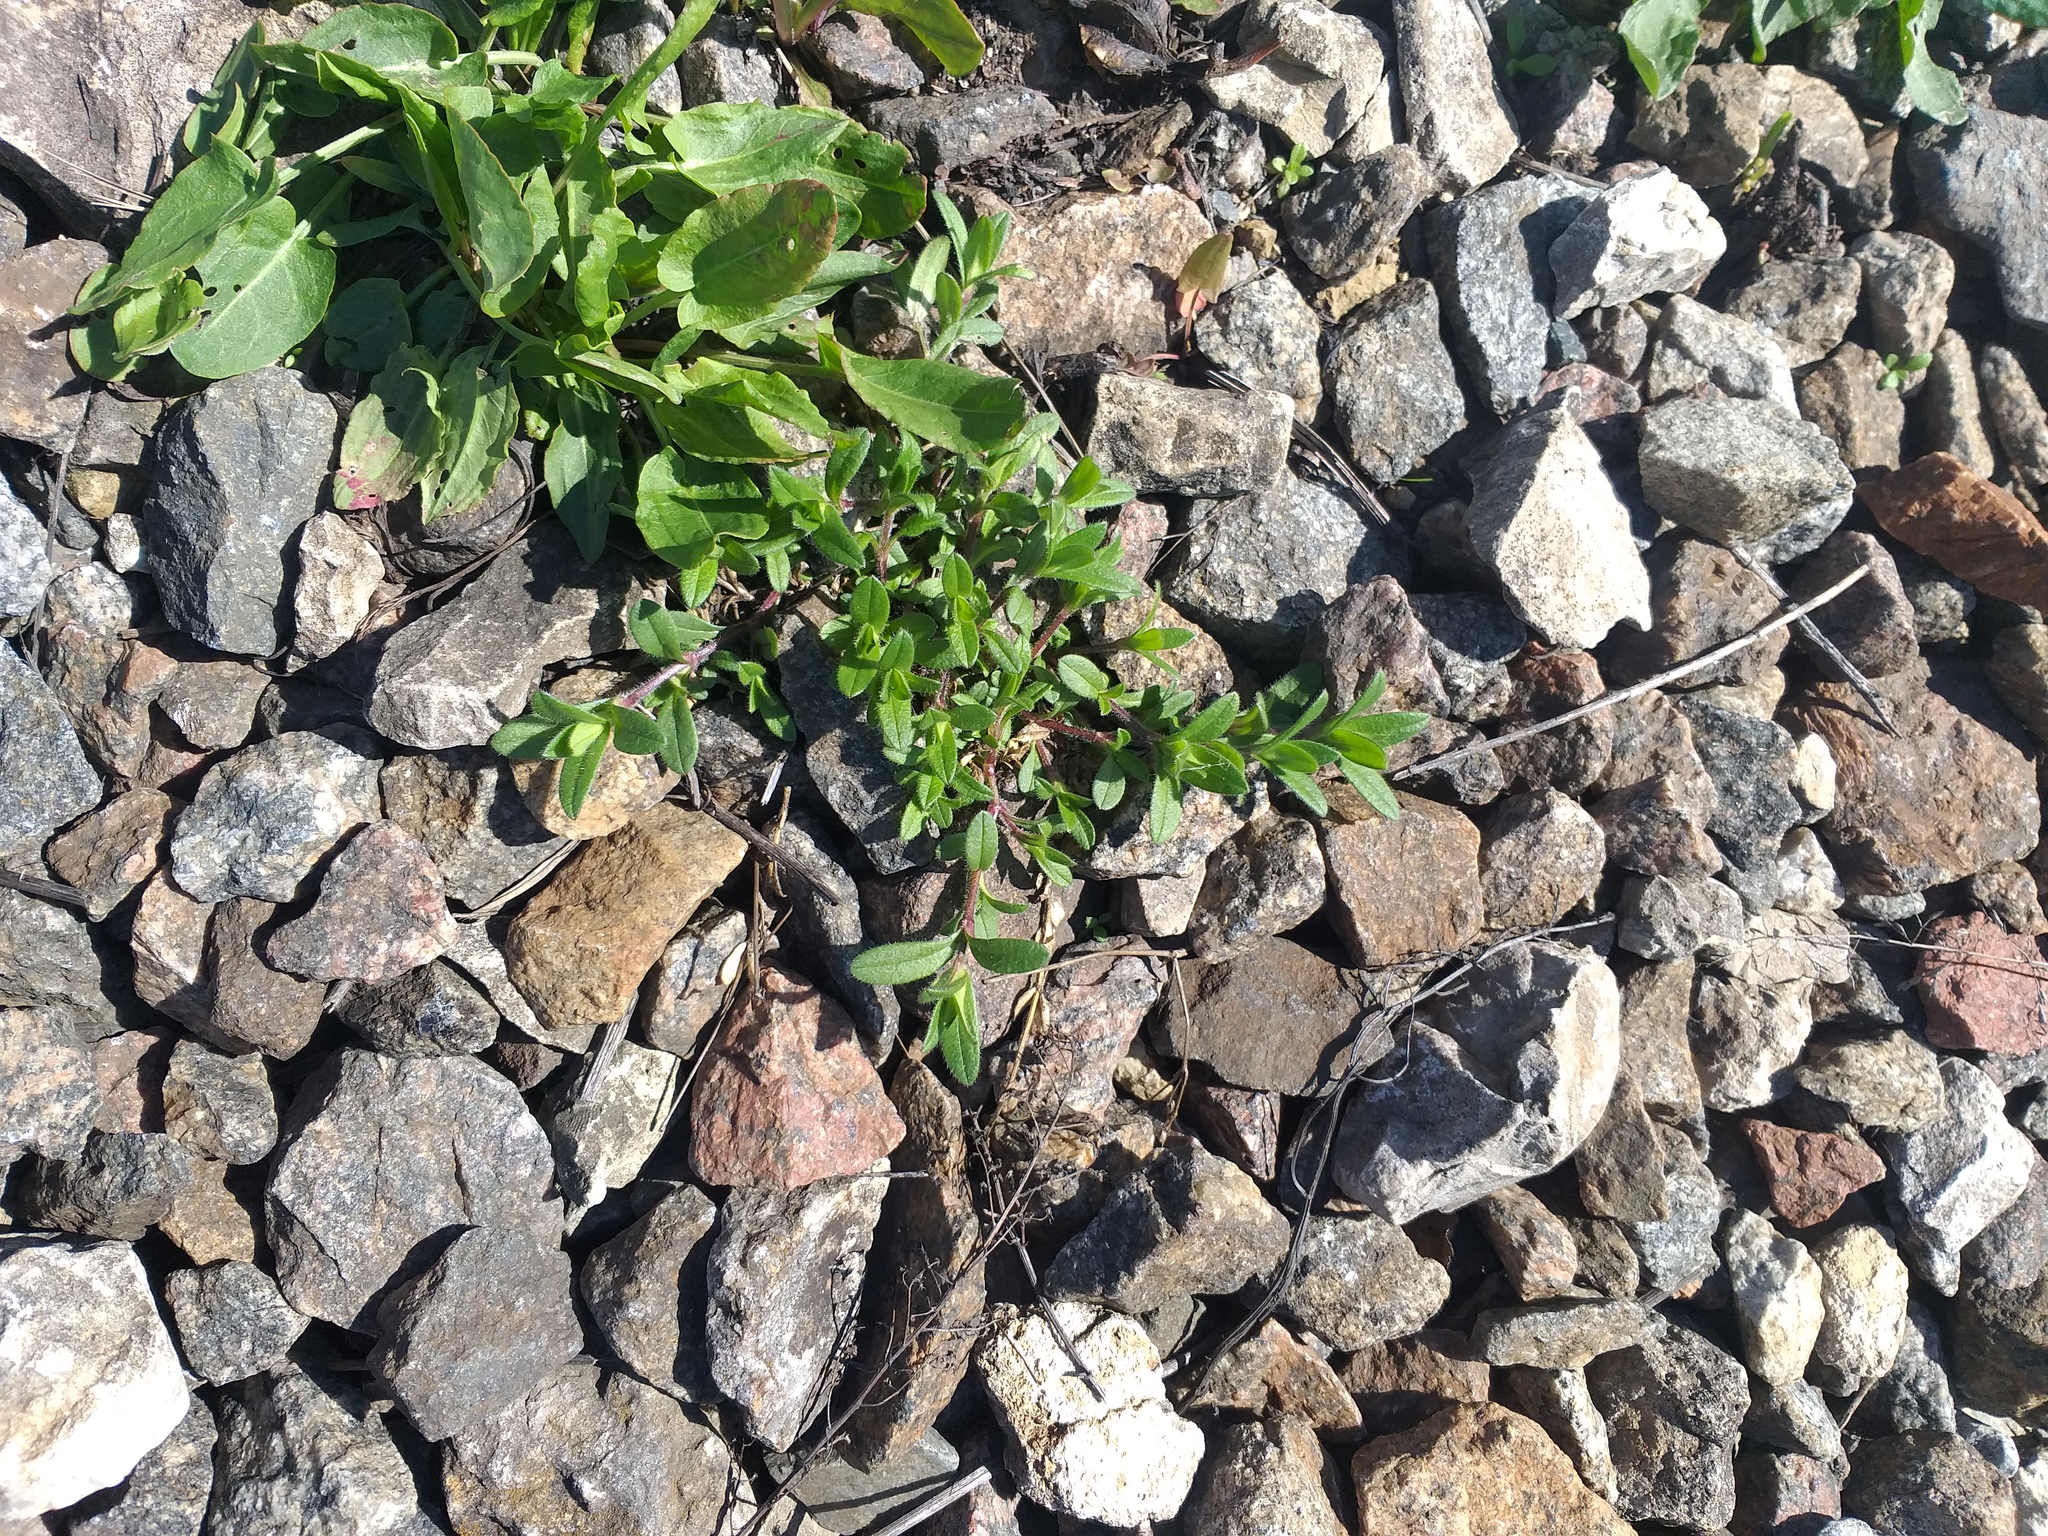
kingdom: Plantae
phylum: Tracheophyta
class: Magnoliopsida
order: Caryophyllales
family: Caryophyllaceae
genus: Cerastium
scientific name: Cerastium holosteoides
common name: Big chickweed
